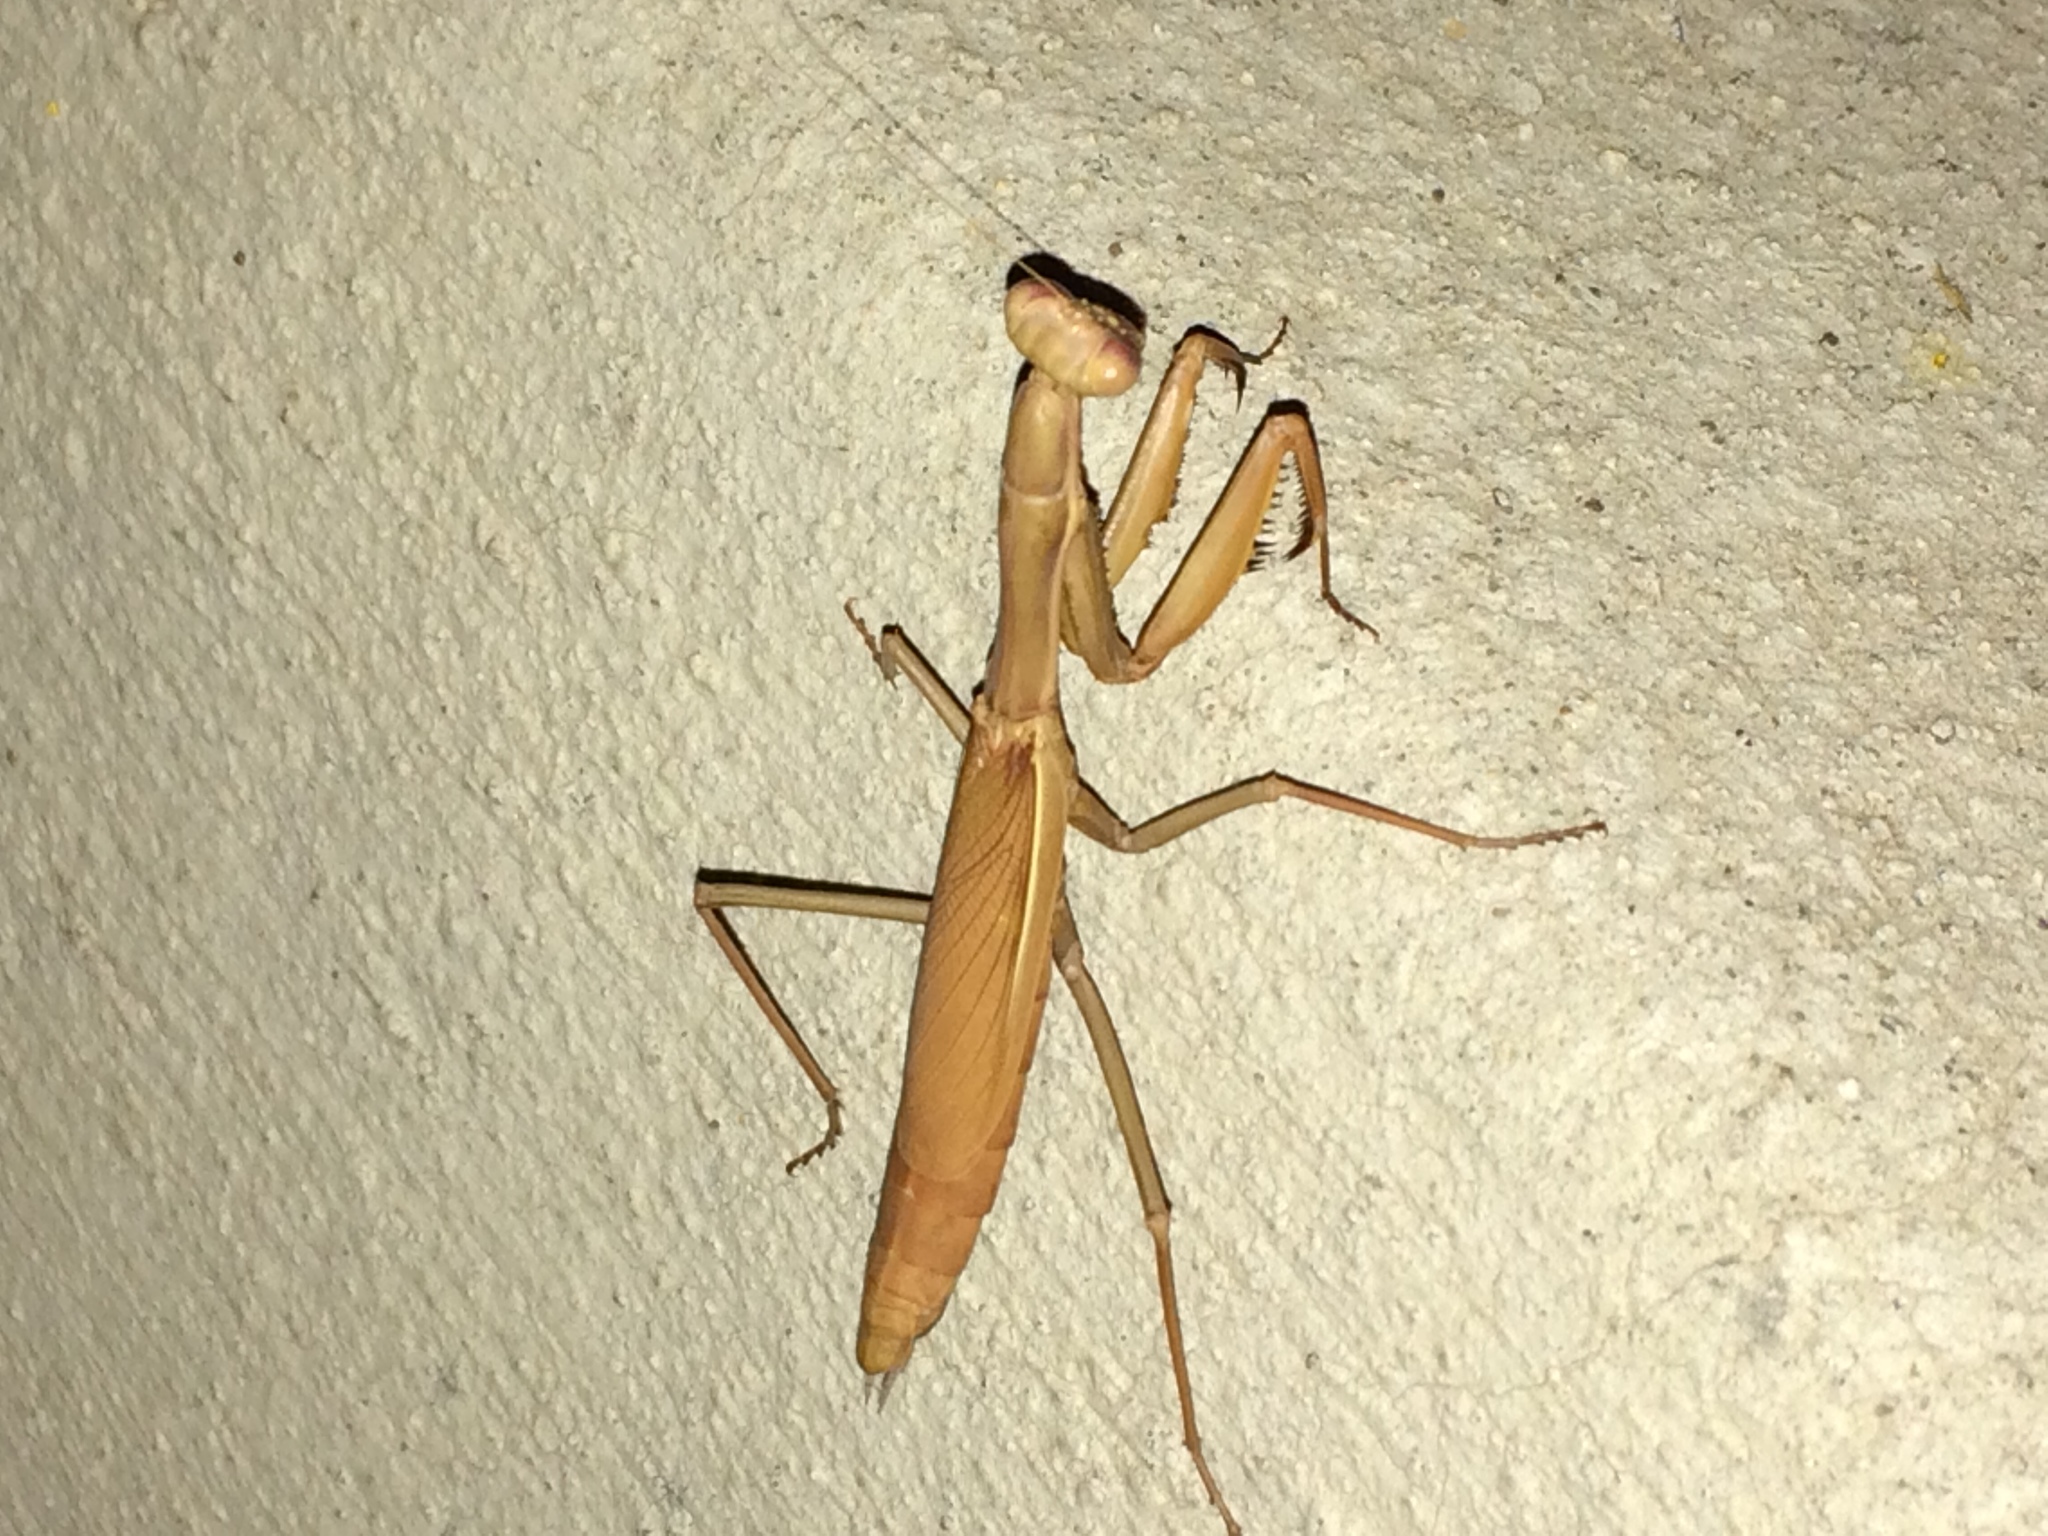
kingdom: Animalia
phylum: Arthropoda
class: Insecta
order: Mantodea
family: Eremiaphilidae
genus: Iris
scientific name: Iris oratoria
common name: Mediterranean mantis
